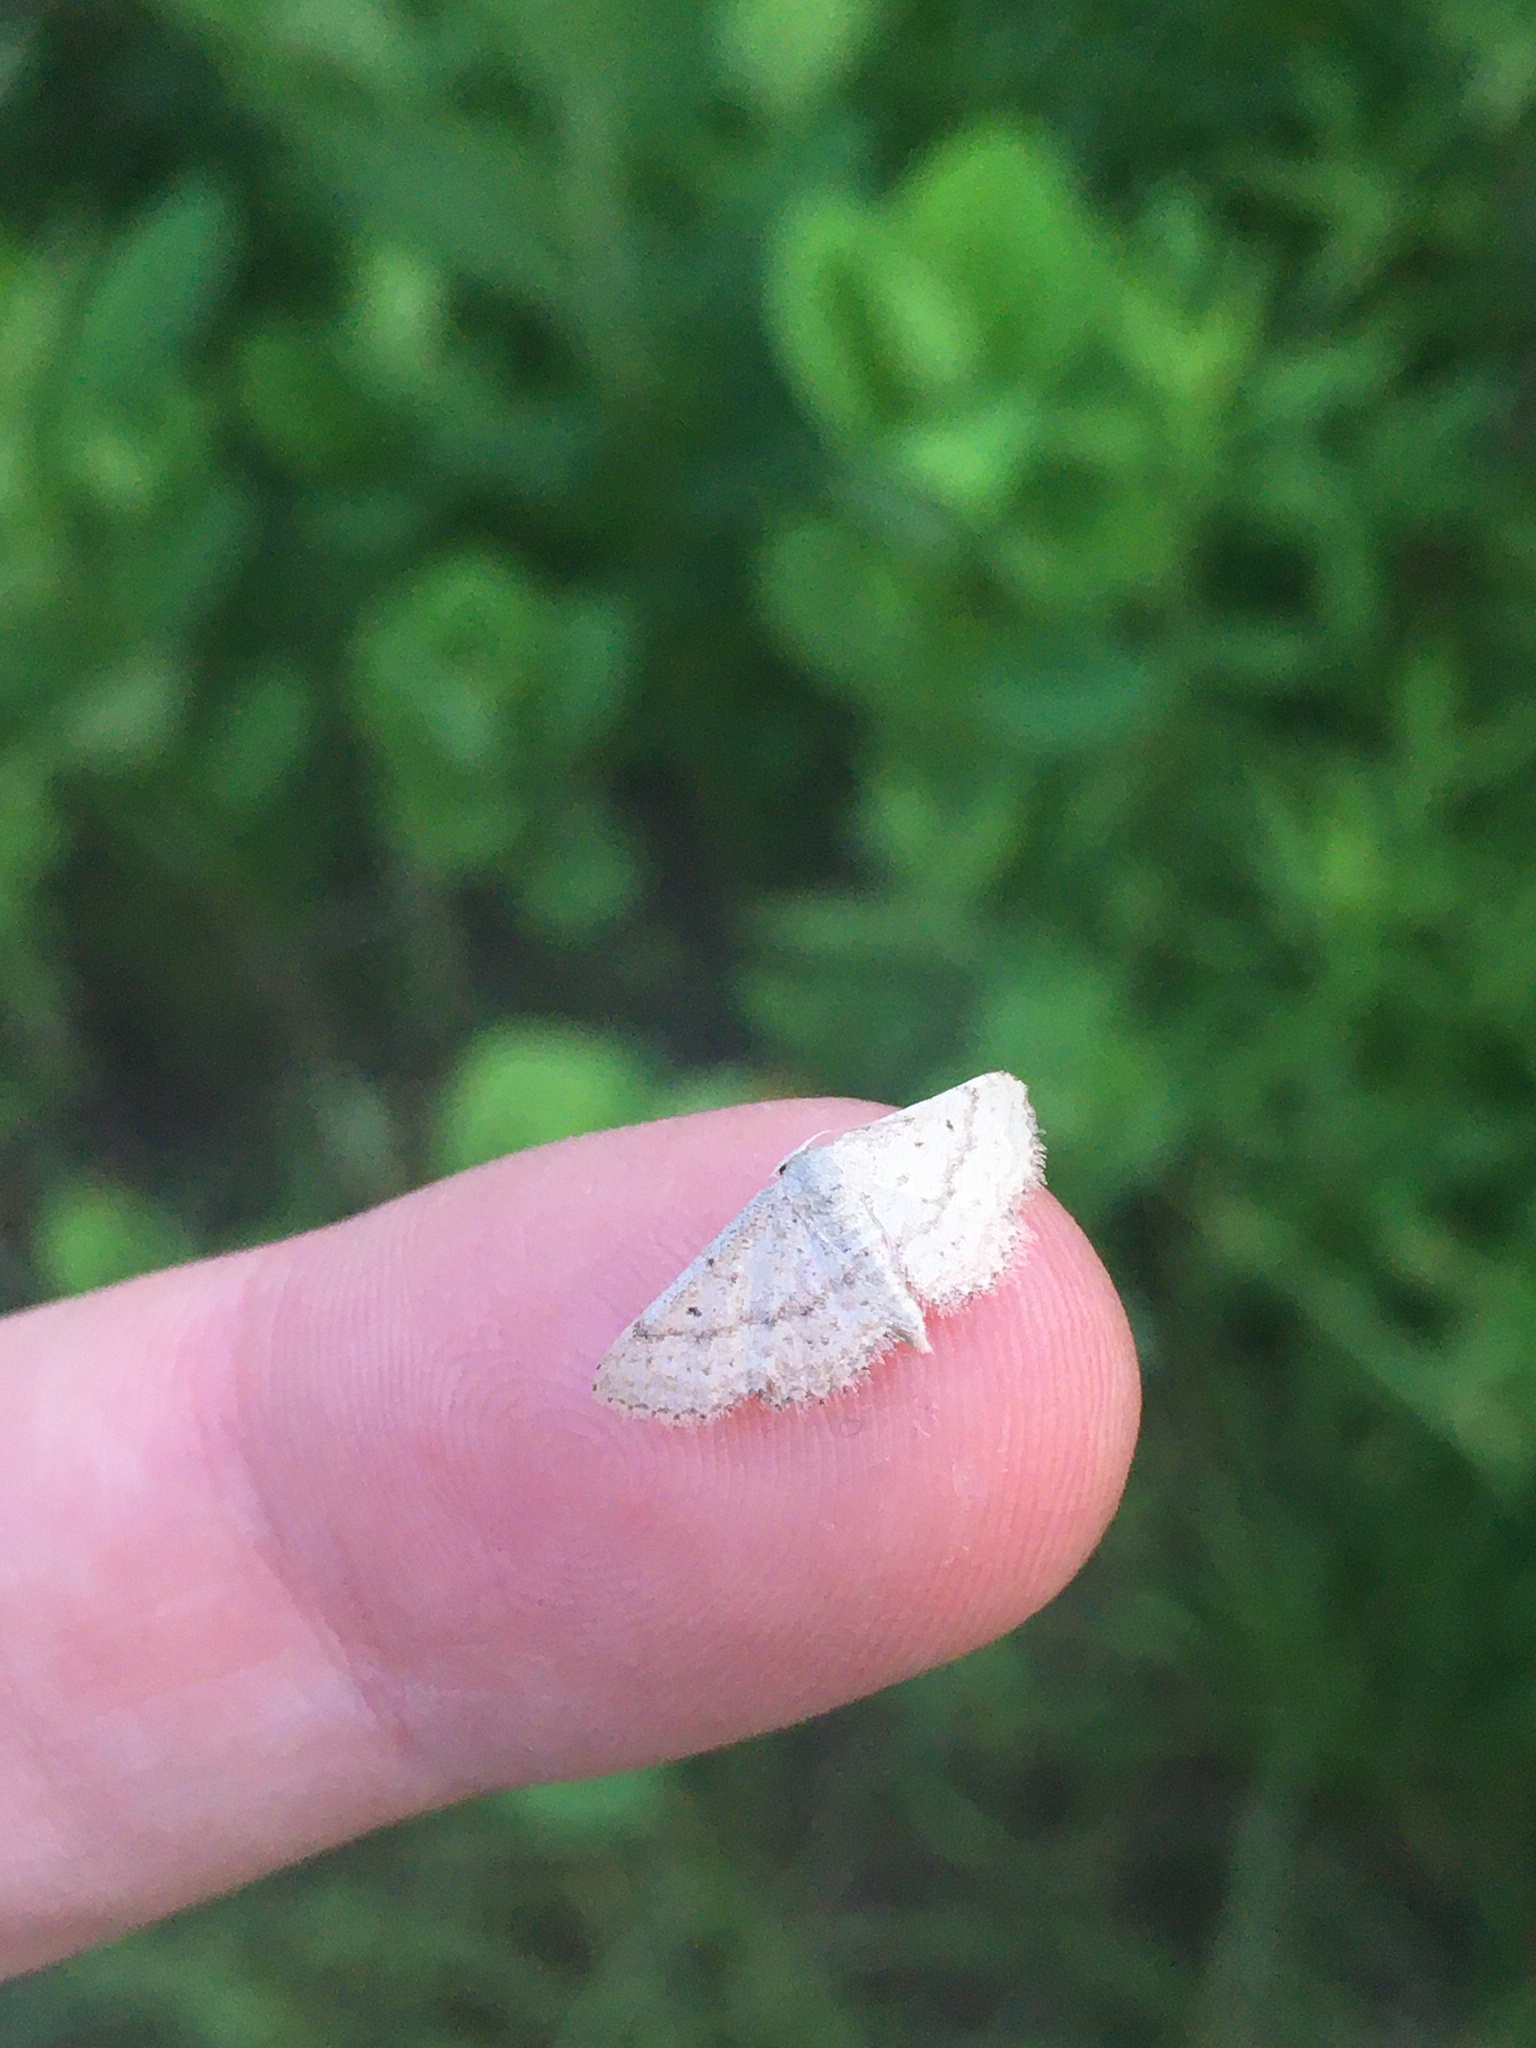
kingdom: Animalia
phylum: Arthropoda
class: Insecta
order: Lepidoptera
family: Geometridae
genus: Lobocleta
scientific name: Lobocleta ossularia
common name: Drab brown wave
